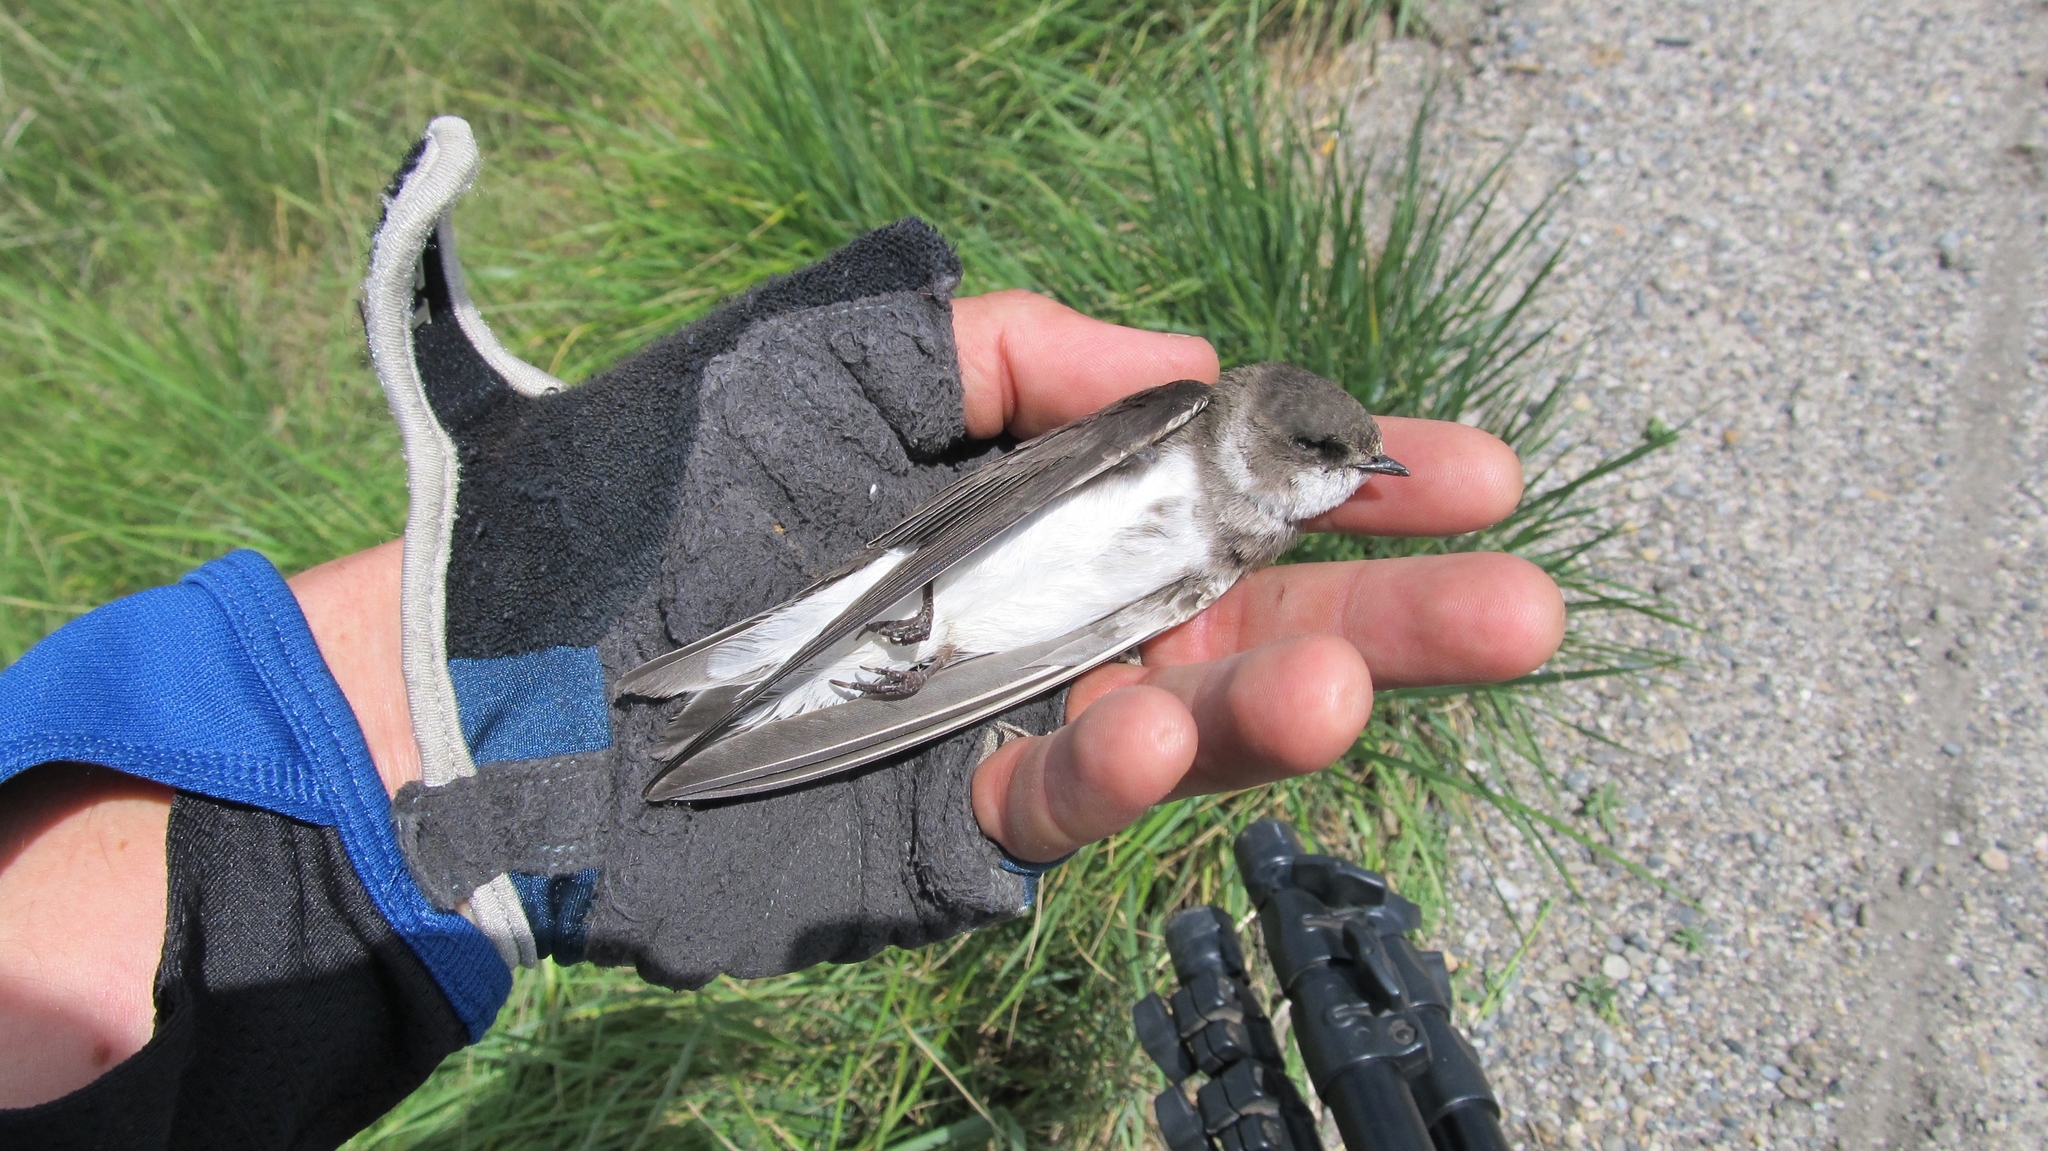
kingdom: Animalia
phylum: Chordata
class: Aves
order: Passeriformes
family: Hirundinidae
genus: Riparia
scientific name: Riparia riparia
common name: Sand martin
